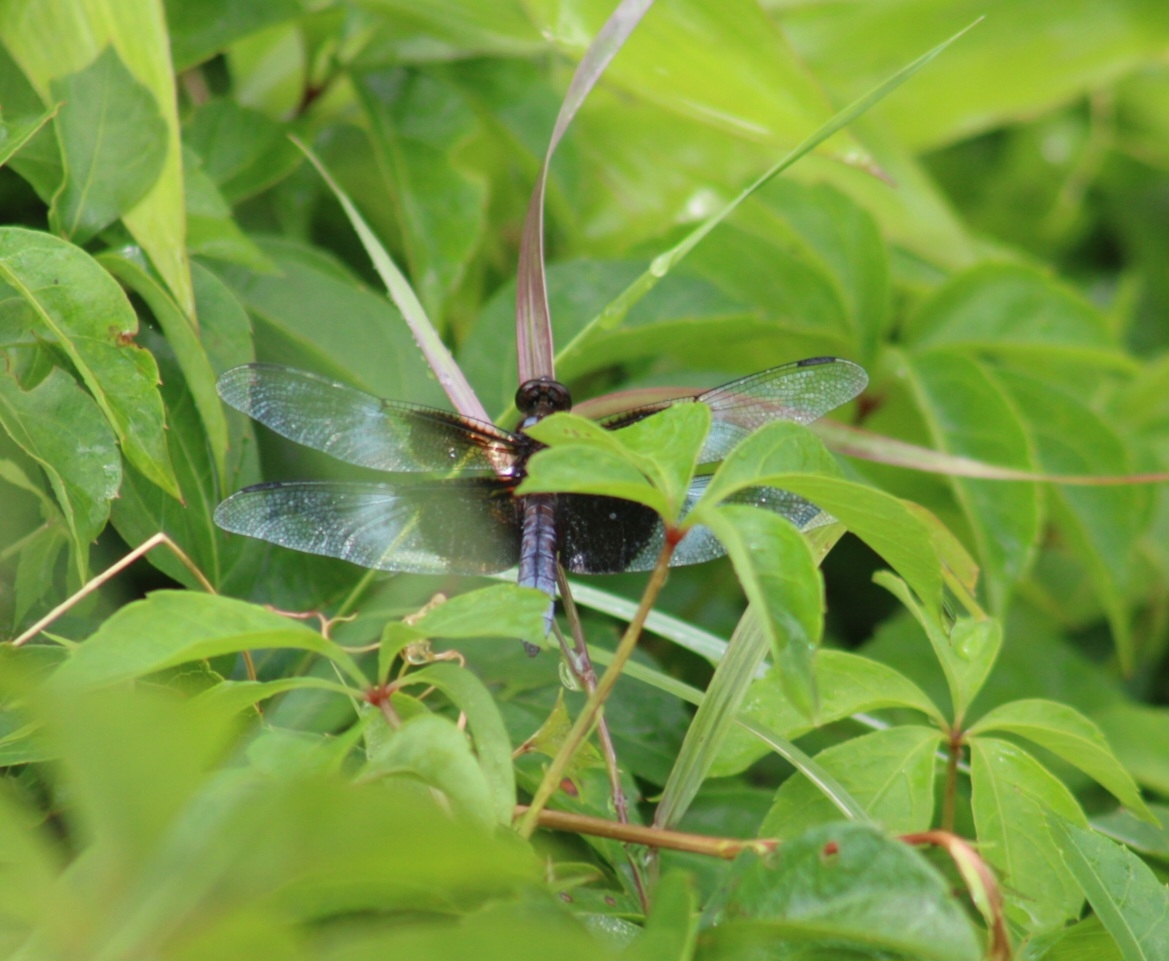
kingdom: Animalia
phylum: Arthropoda
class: Insecta
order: Odonata
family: Libellulidae
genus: Libellula
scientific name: Libellula luctuosa
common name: Widow skimmer
